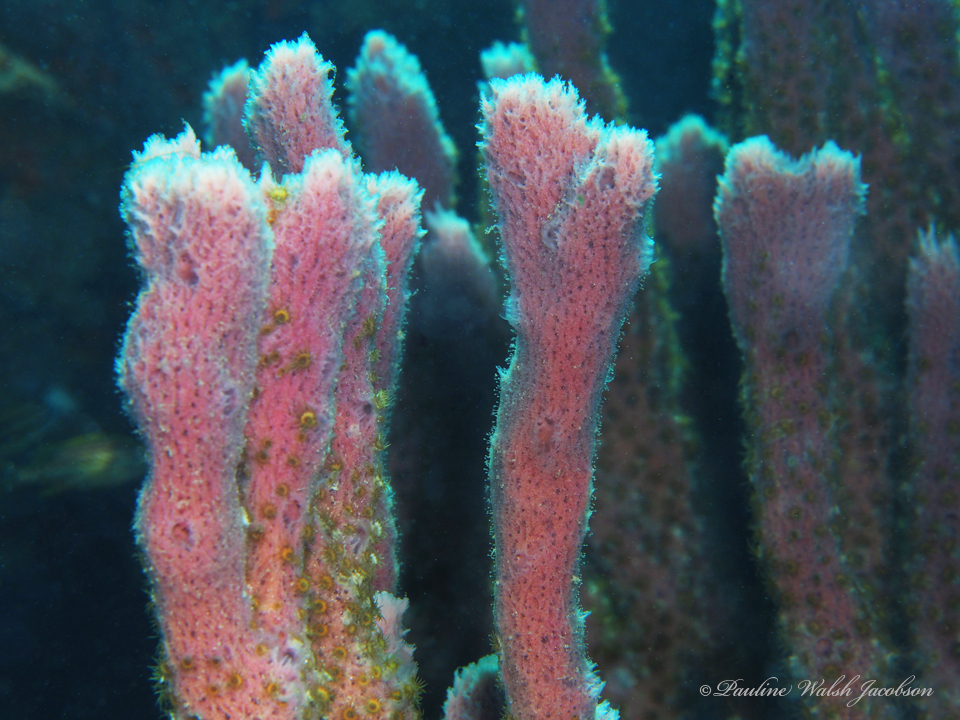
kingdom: Animalia
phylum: Porifera
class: Demospongiae
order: Haplosclerida
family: Niphatidae
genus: Niphates
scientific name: Niphates erecta
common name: Lavender rope sponge
